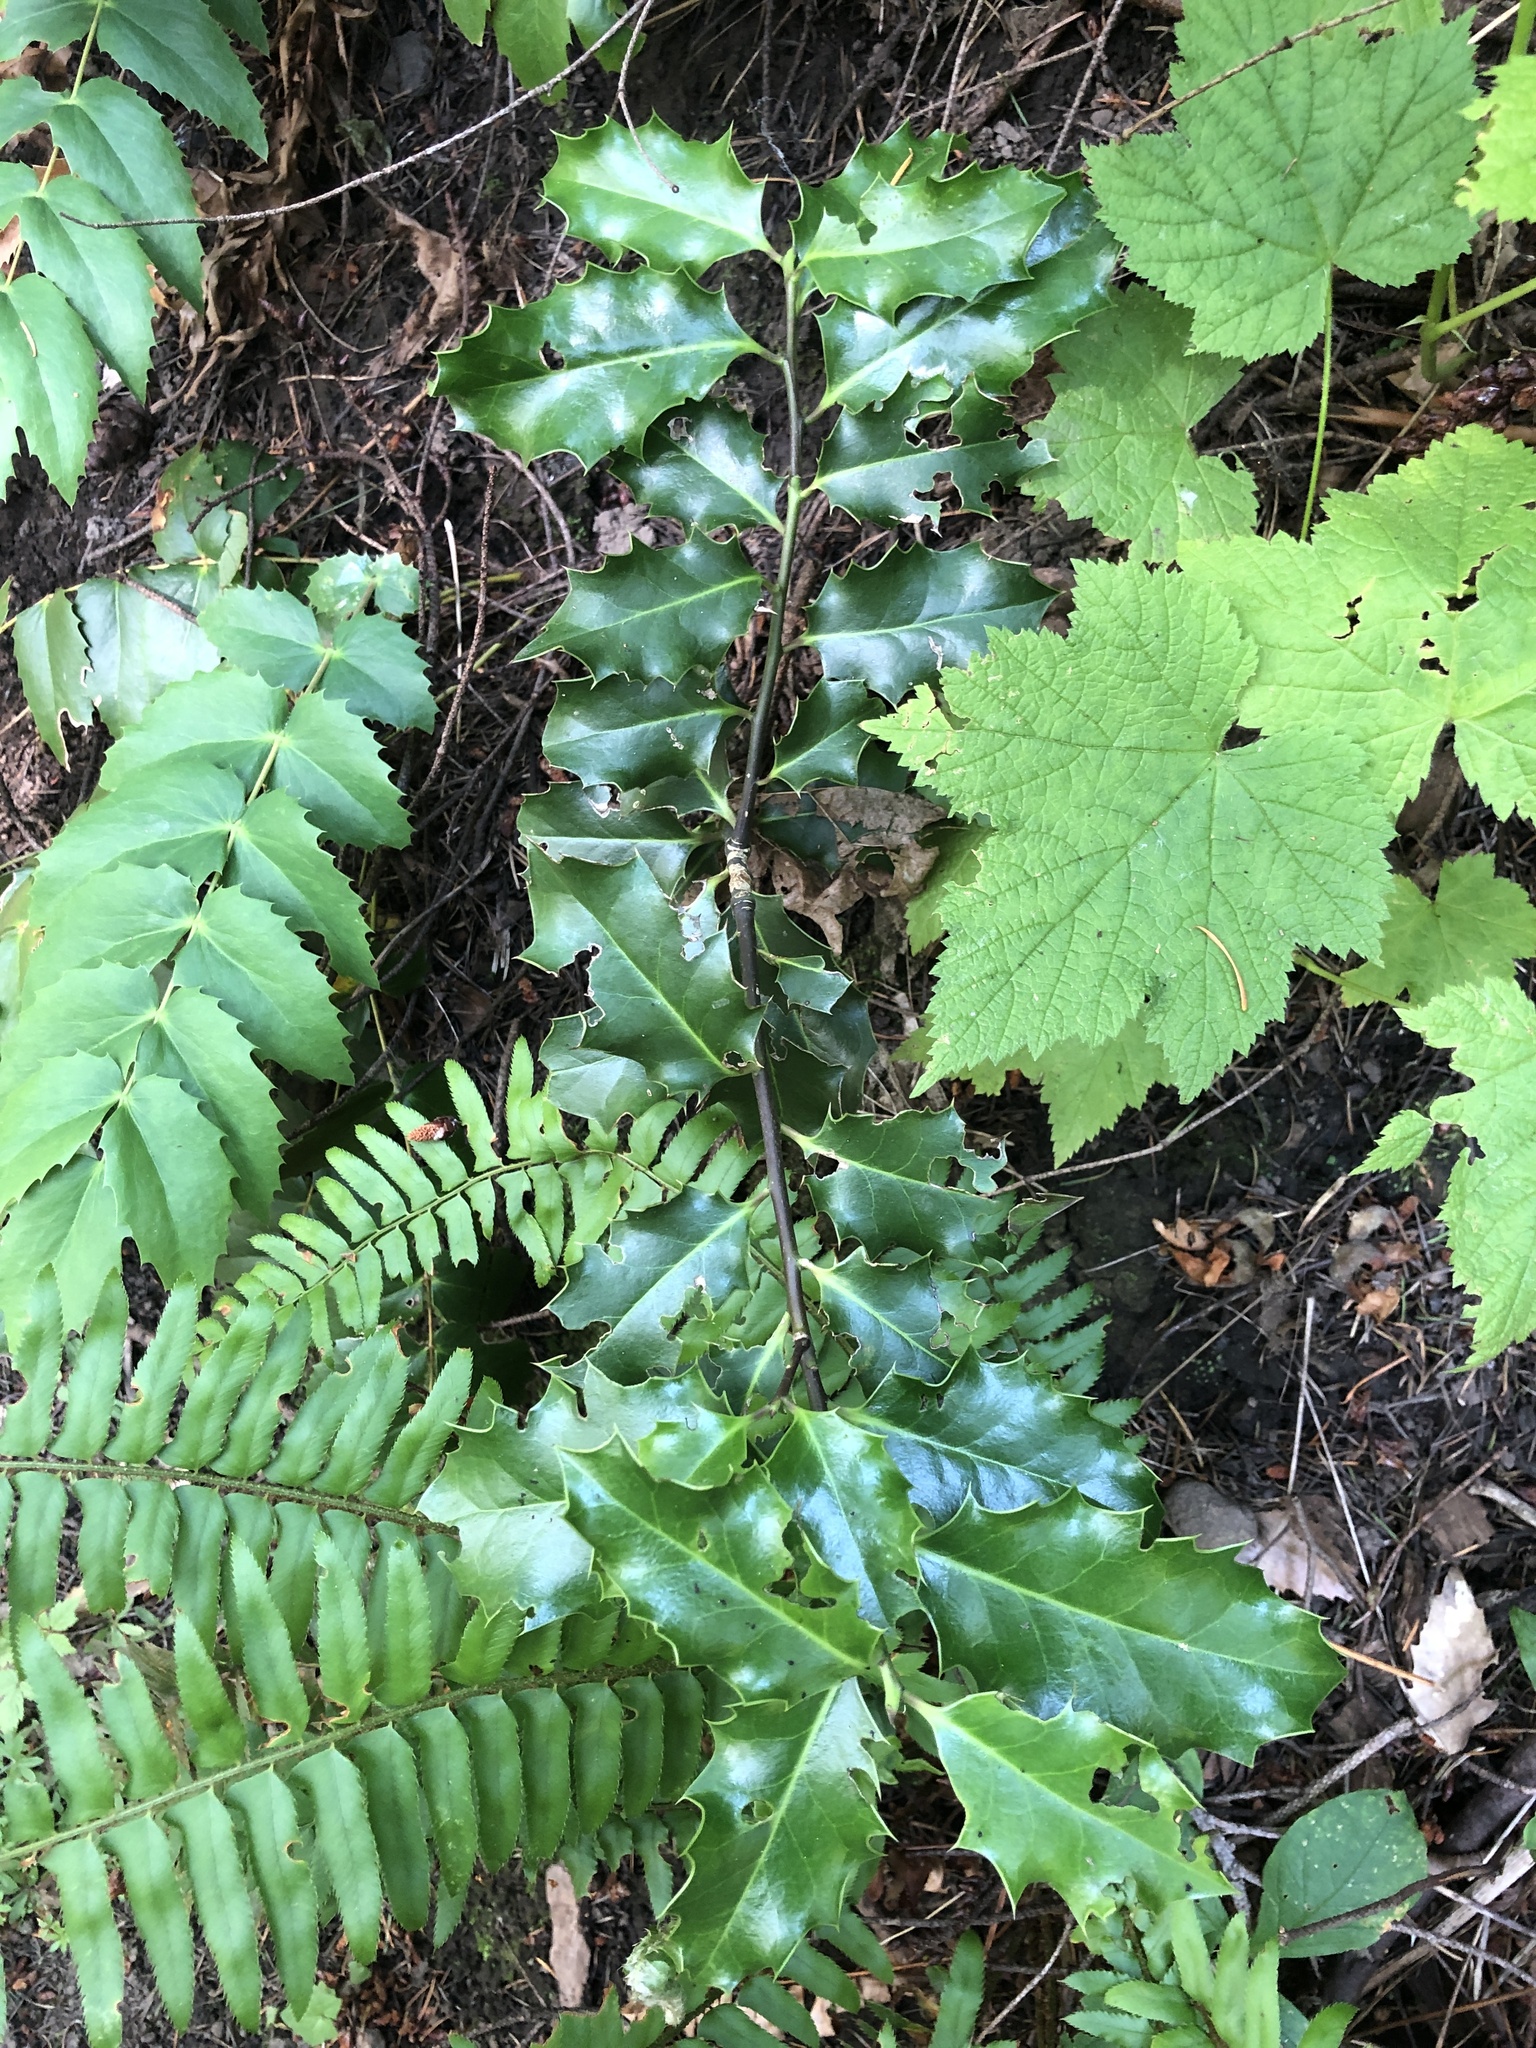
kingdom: Plantae
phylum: Tracheophyta
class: Magnoliopsida
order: Aquifoliales
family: Aquifoliaceae
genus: Ilex
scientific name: Ilex aquifolium
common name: English holly
